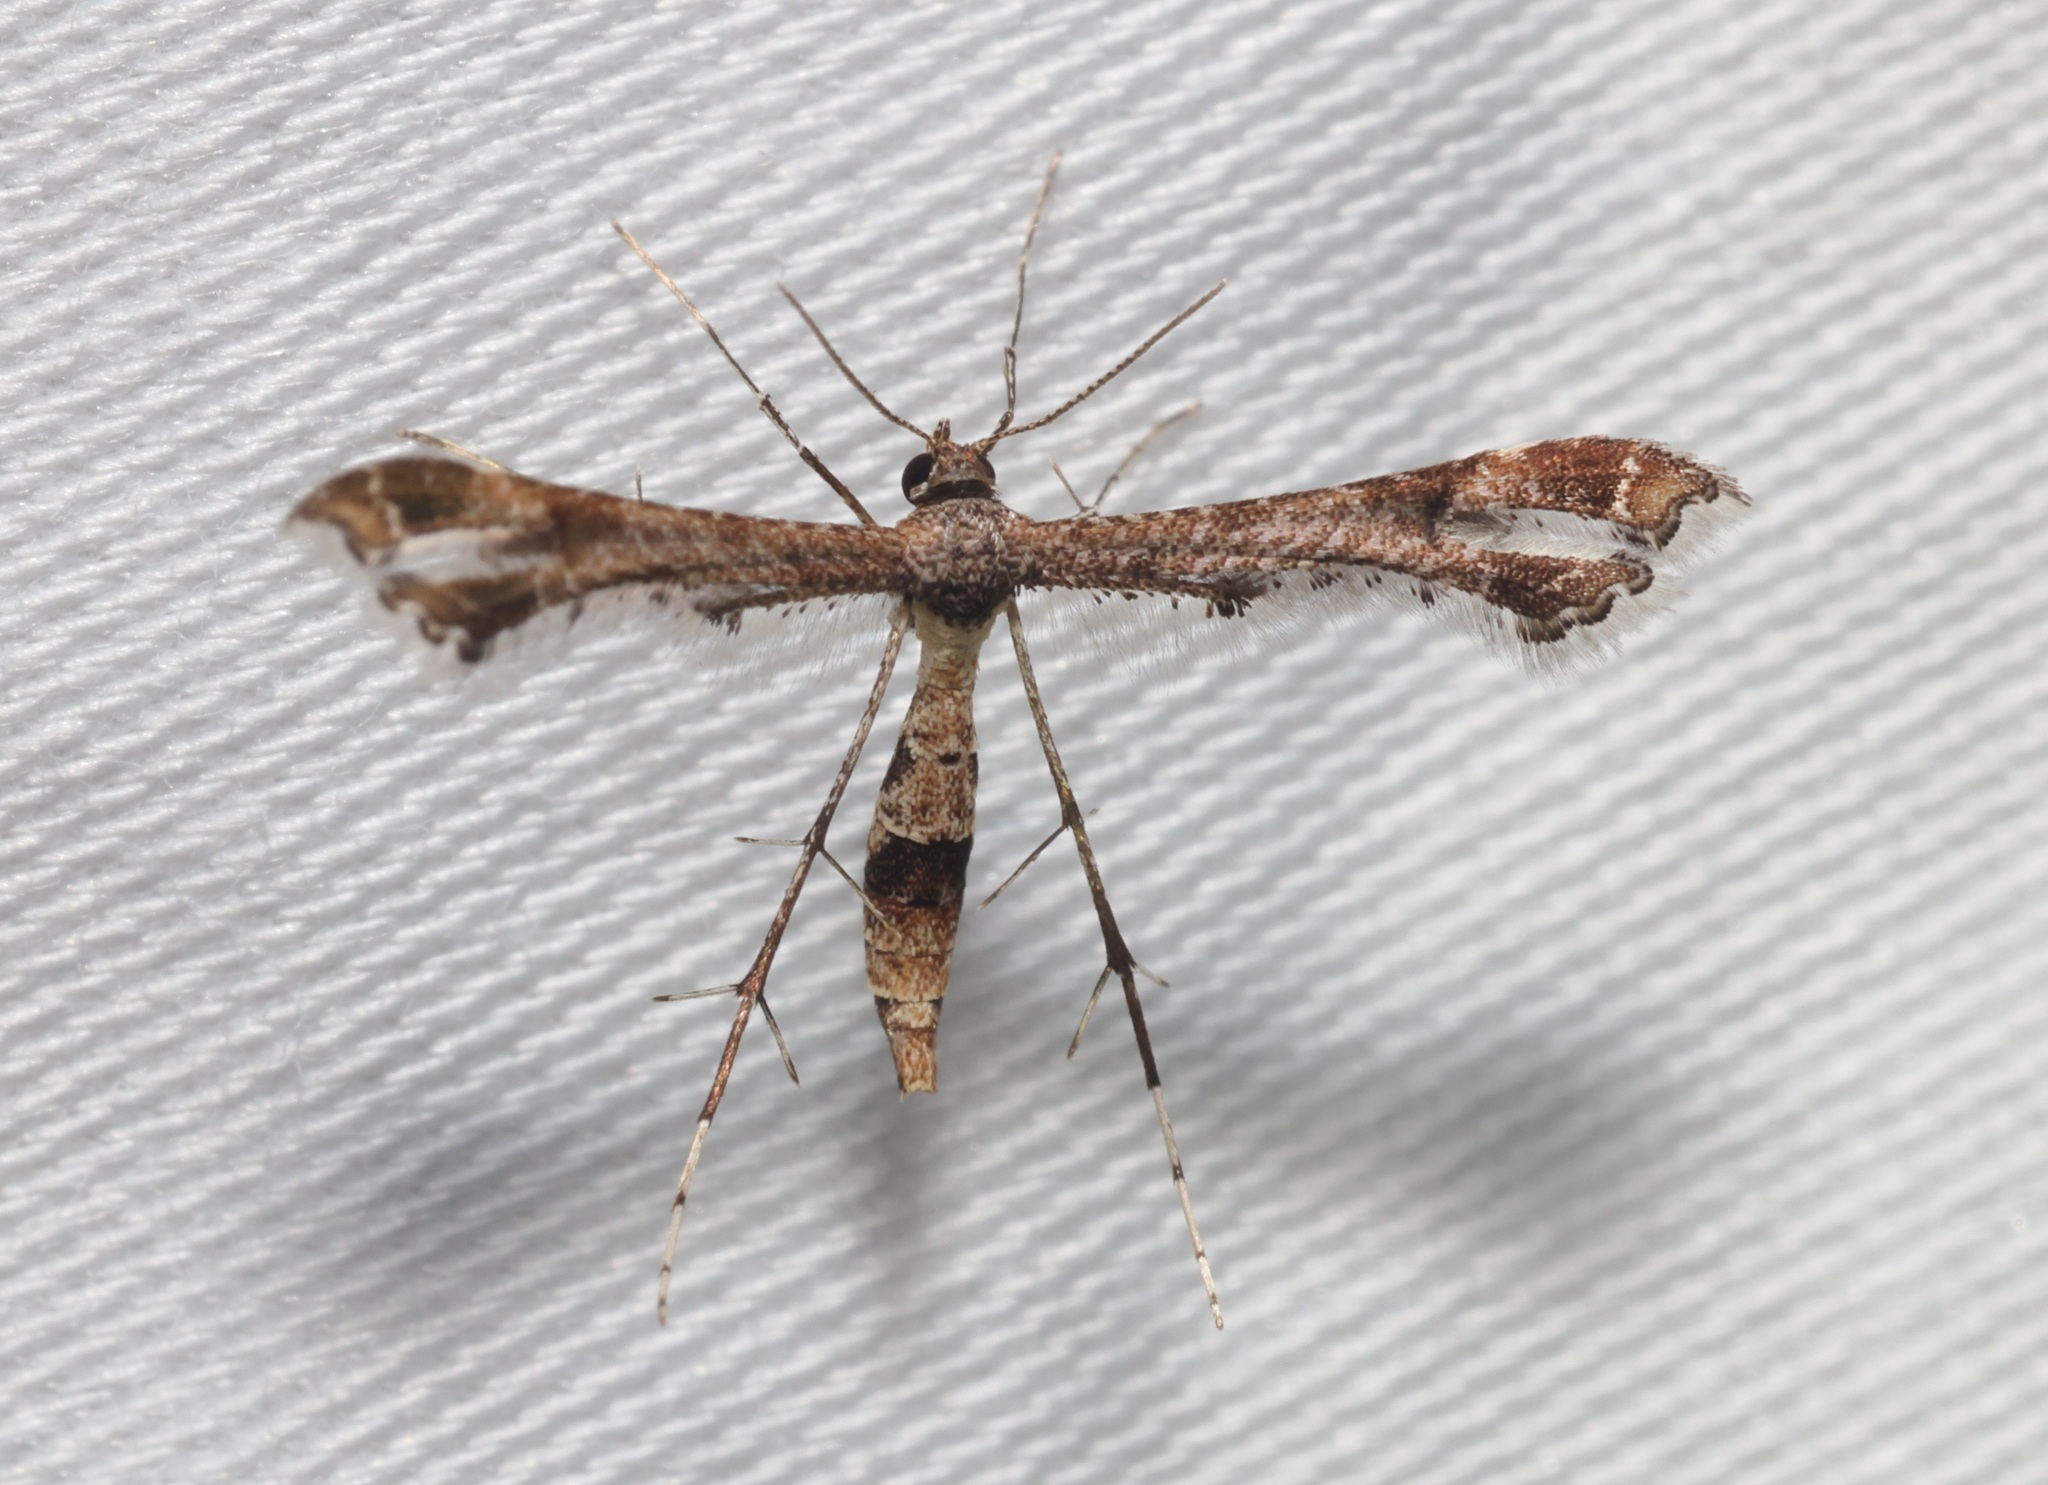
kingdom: Animalia
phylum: Arthropoda
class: Insecta
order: Lepidoptera
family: Pterophoridae
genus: Lantanophaga
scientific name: Lantanophaga pusillidactylus
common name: Moth
